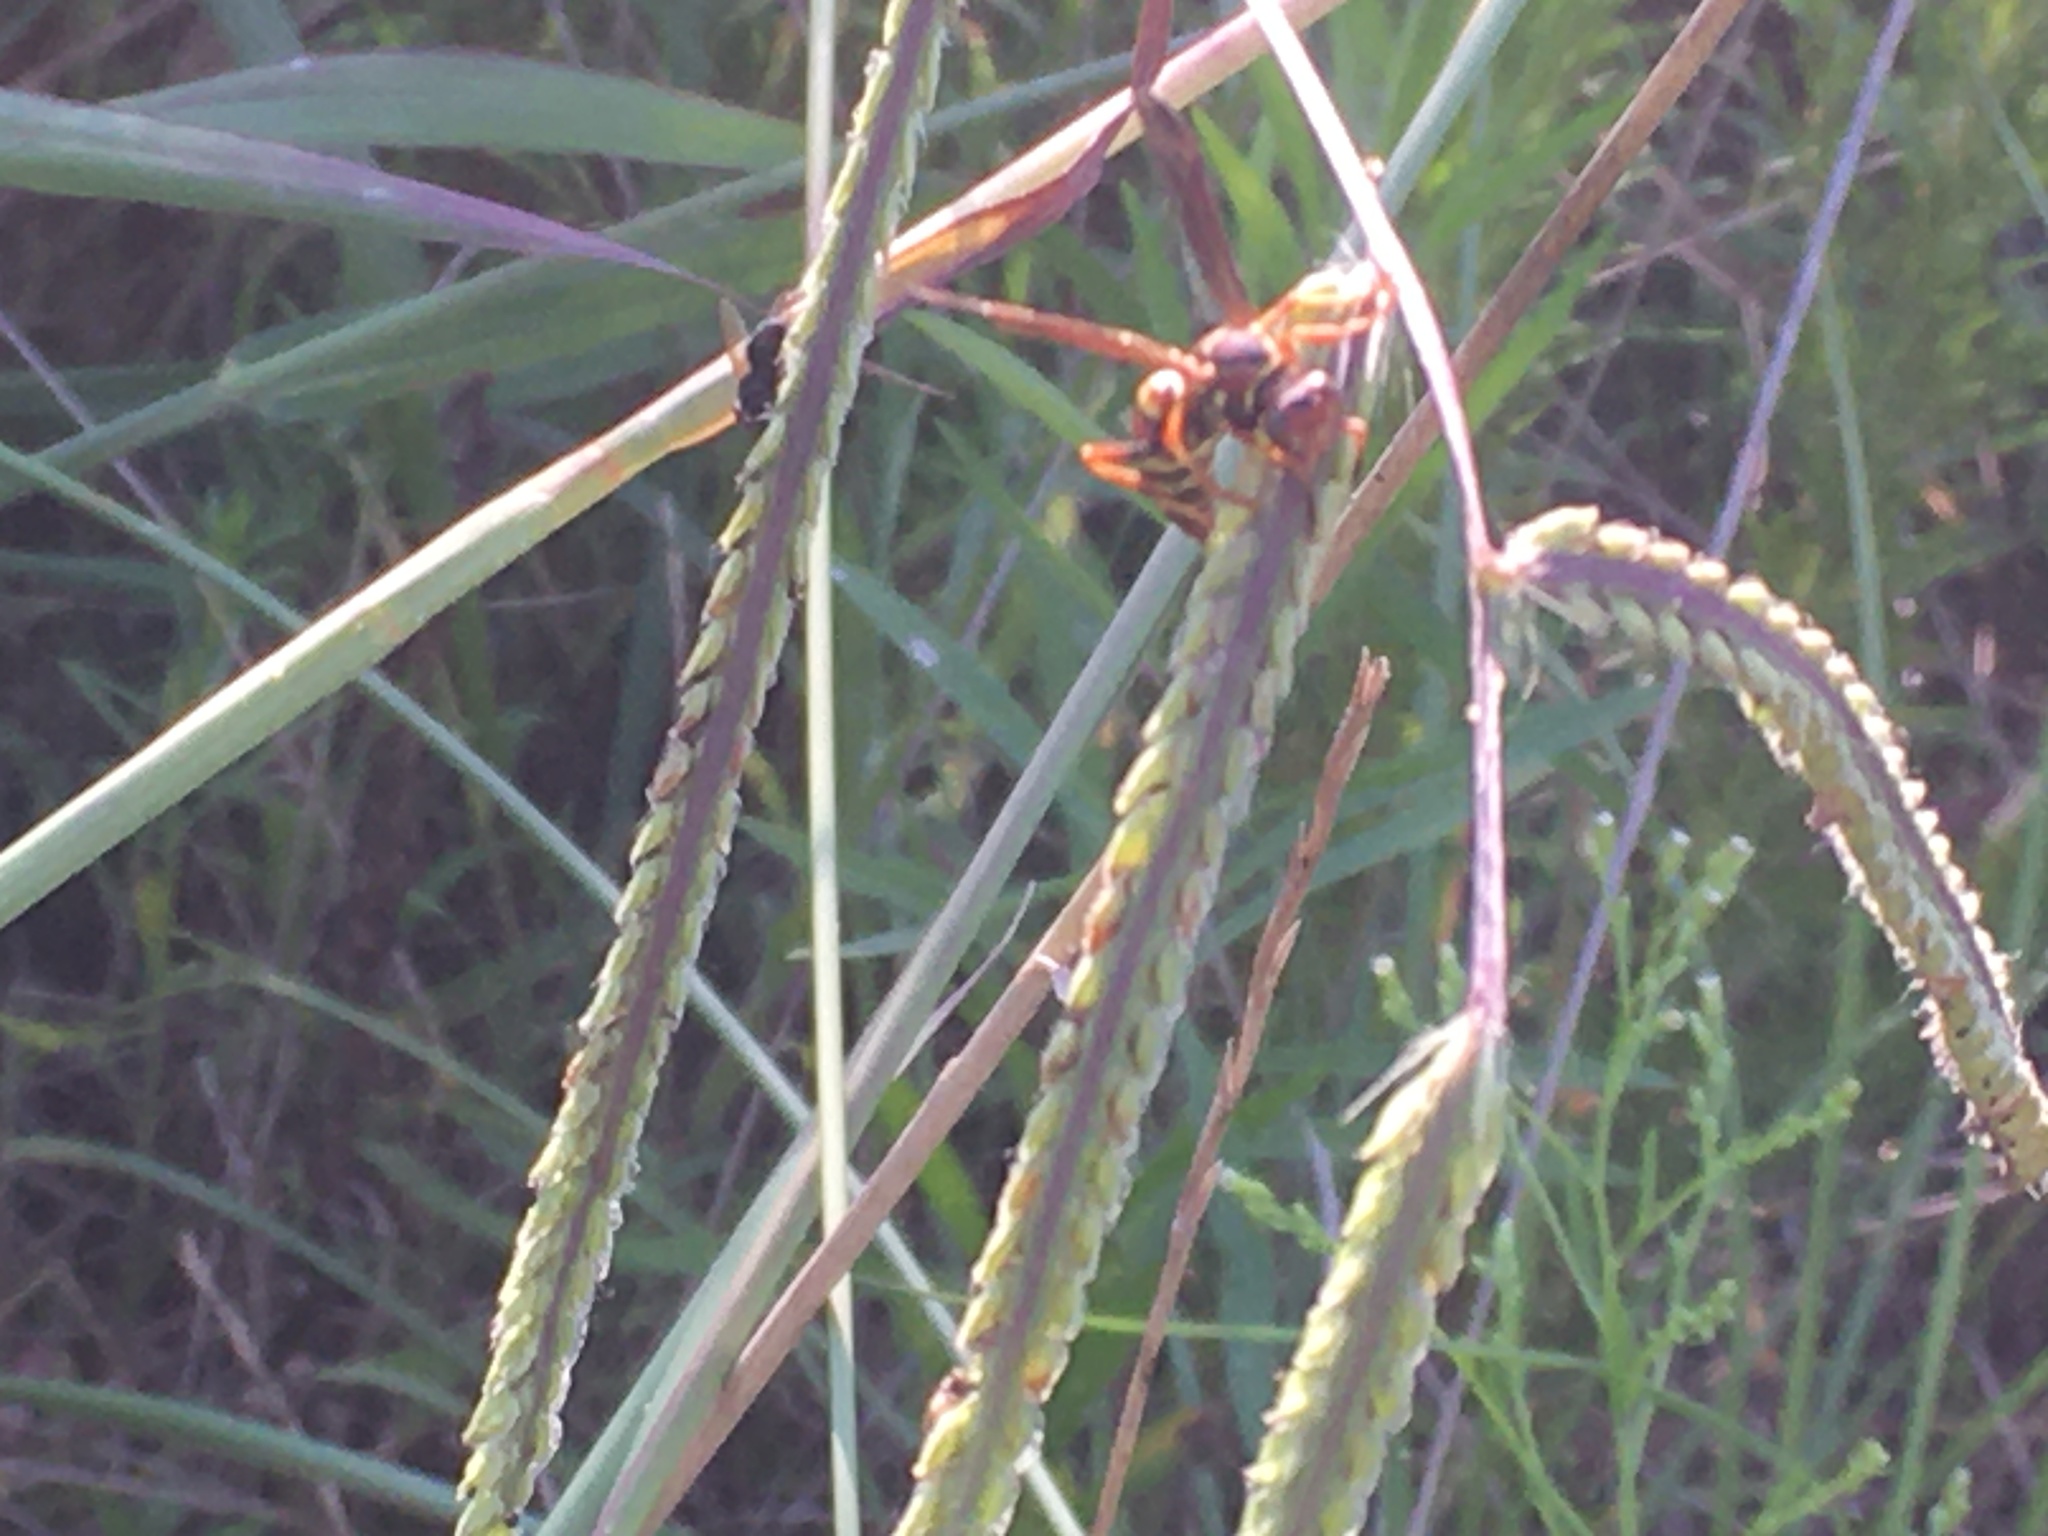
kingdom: Animalia
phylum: Arthropoda
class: Insecta
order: Hymenoptera
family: Eumenidae
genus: Polistes
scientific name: Polistes dorsalis
